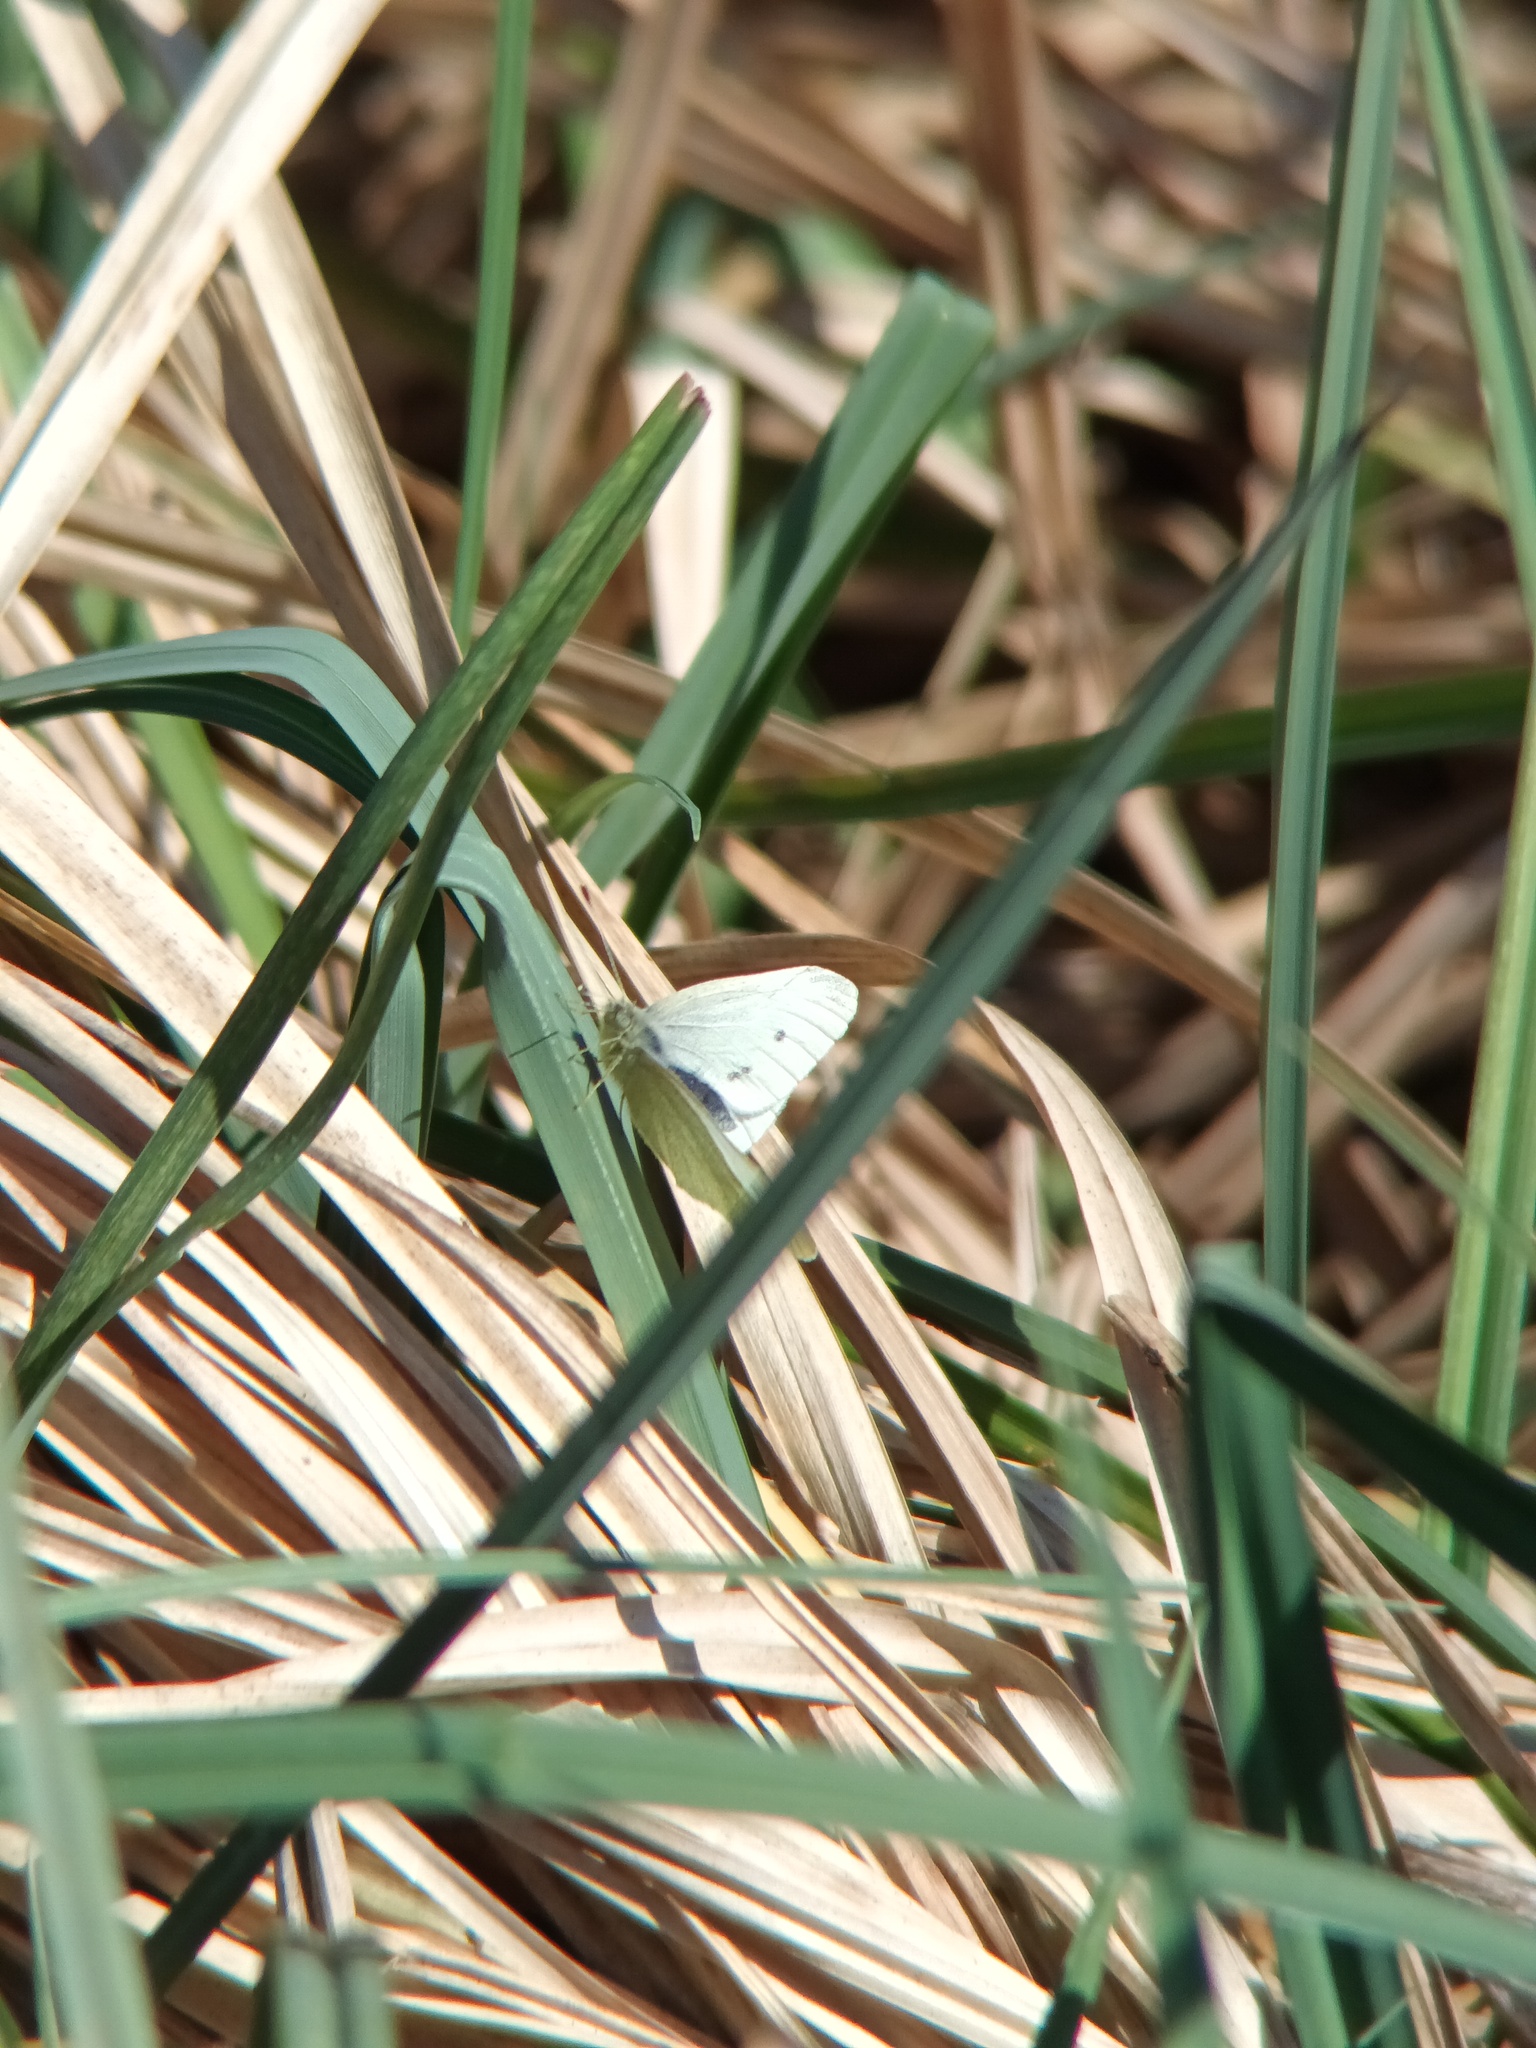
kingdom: Animalia
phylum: Arthropoda
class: Insecta
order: Lepidoptera
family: Pieridae
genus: Pieris
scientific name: Pieris rapae
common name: Small white
